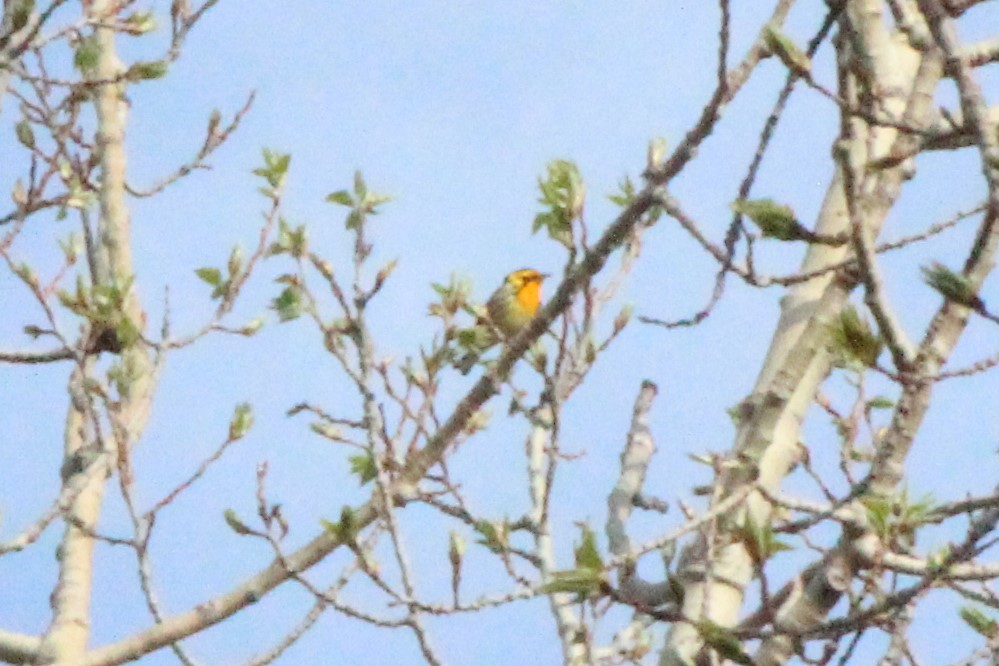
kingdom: Animalia
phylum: Chordata
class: Aves
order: Passeriformes
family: Parulidae
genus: Setophaga
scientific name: Setophaga fusca
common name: Blackburnian warbler
